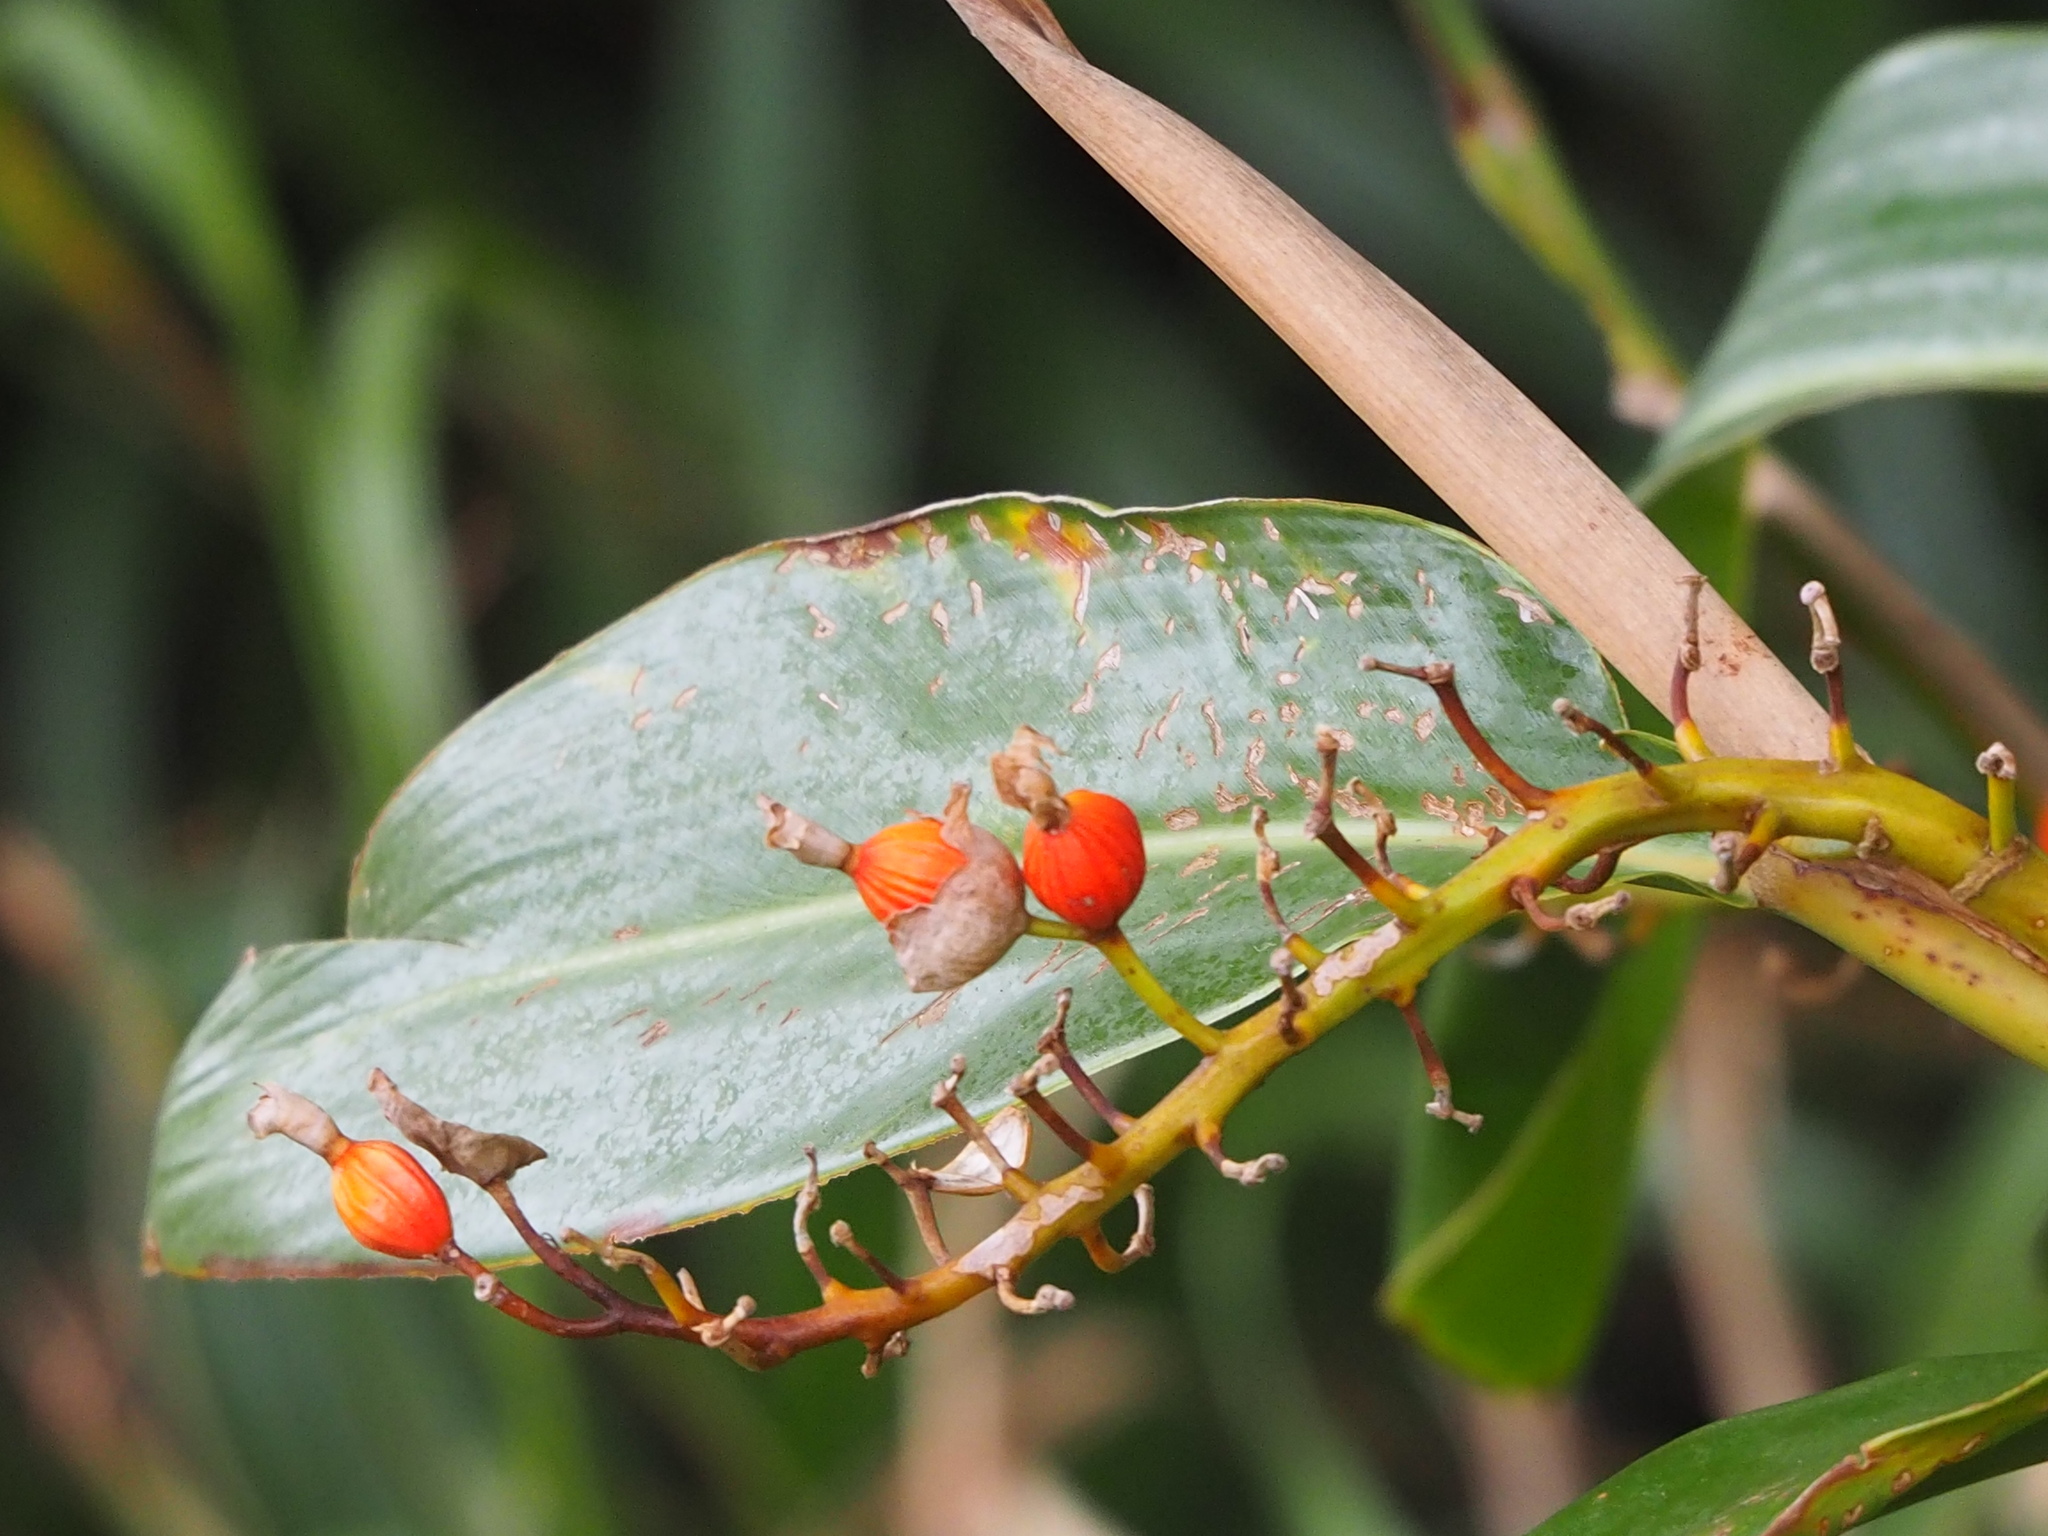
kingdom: Plantae
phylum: Tracheophyta
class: Liliopsida
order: Zingiberales
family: Zingiberaceae
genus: Alpinia
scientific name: Alpinia koshunensis
